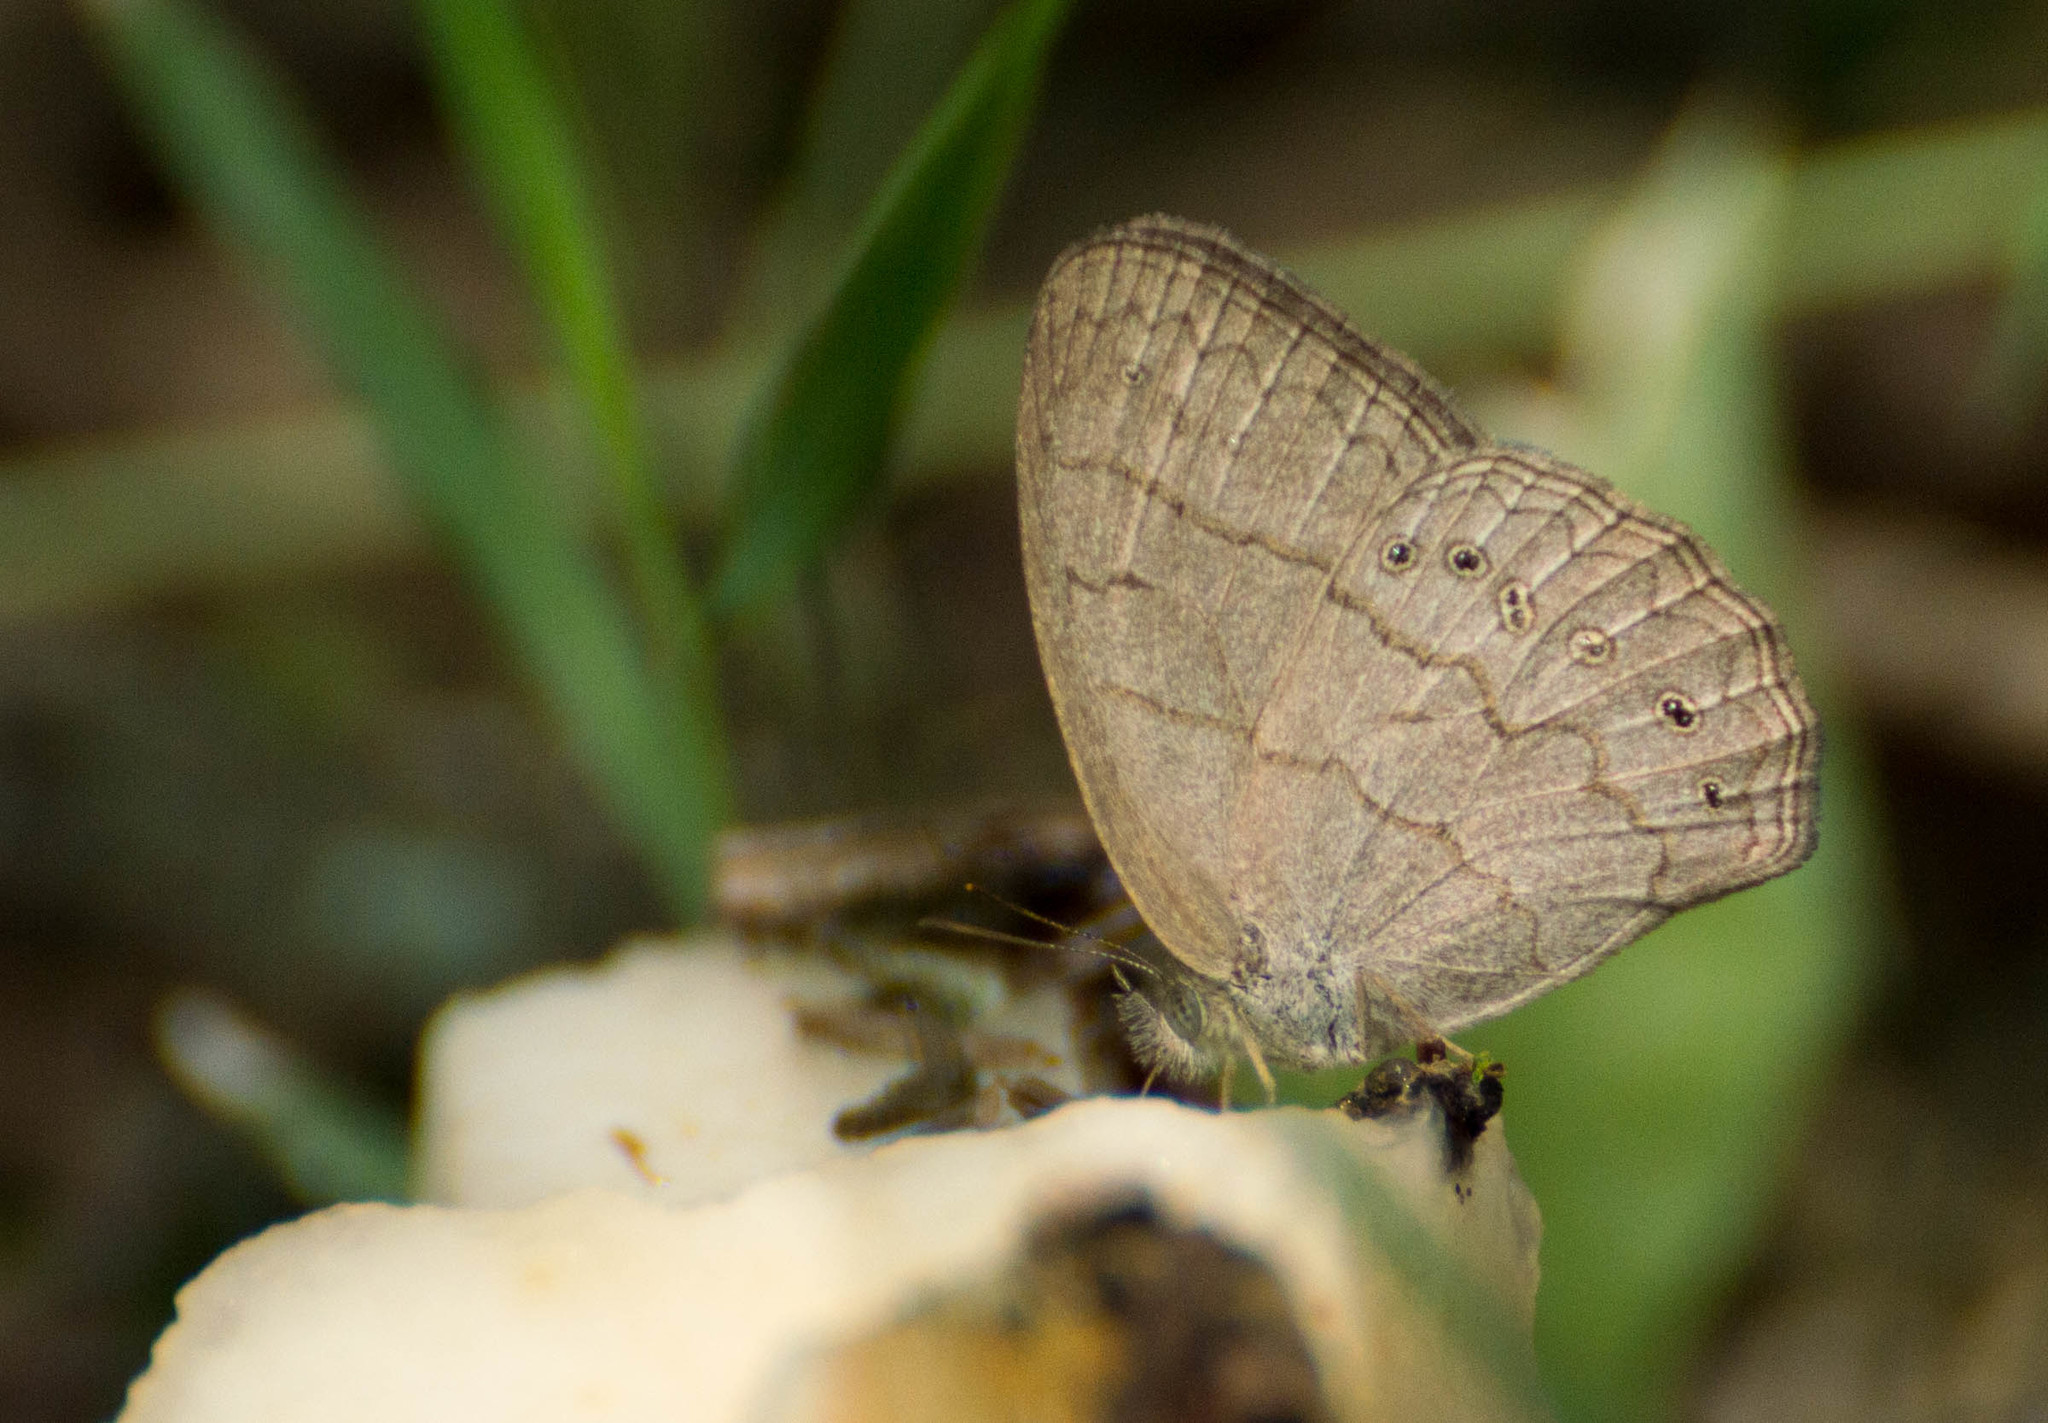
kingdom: Animalia
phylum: Arthropoda
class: Insecta
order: Lepidoptera
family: Nymphalidae
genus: Paryphthimoides
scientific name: Paryphthimoides poltys
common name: Poltys satyr
